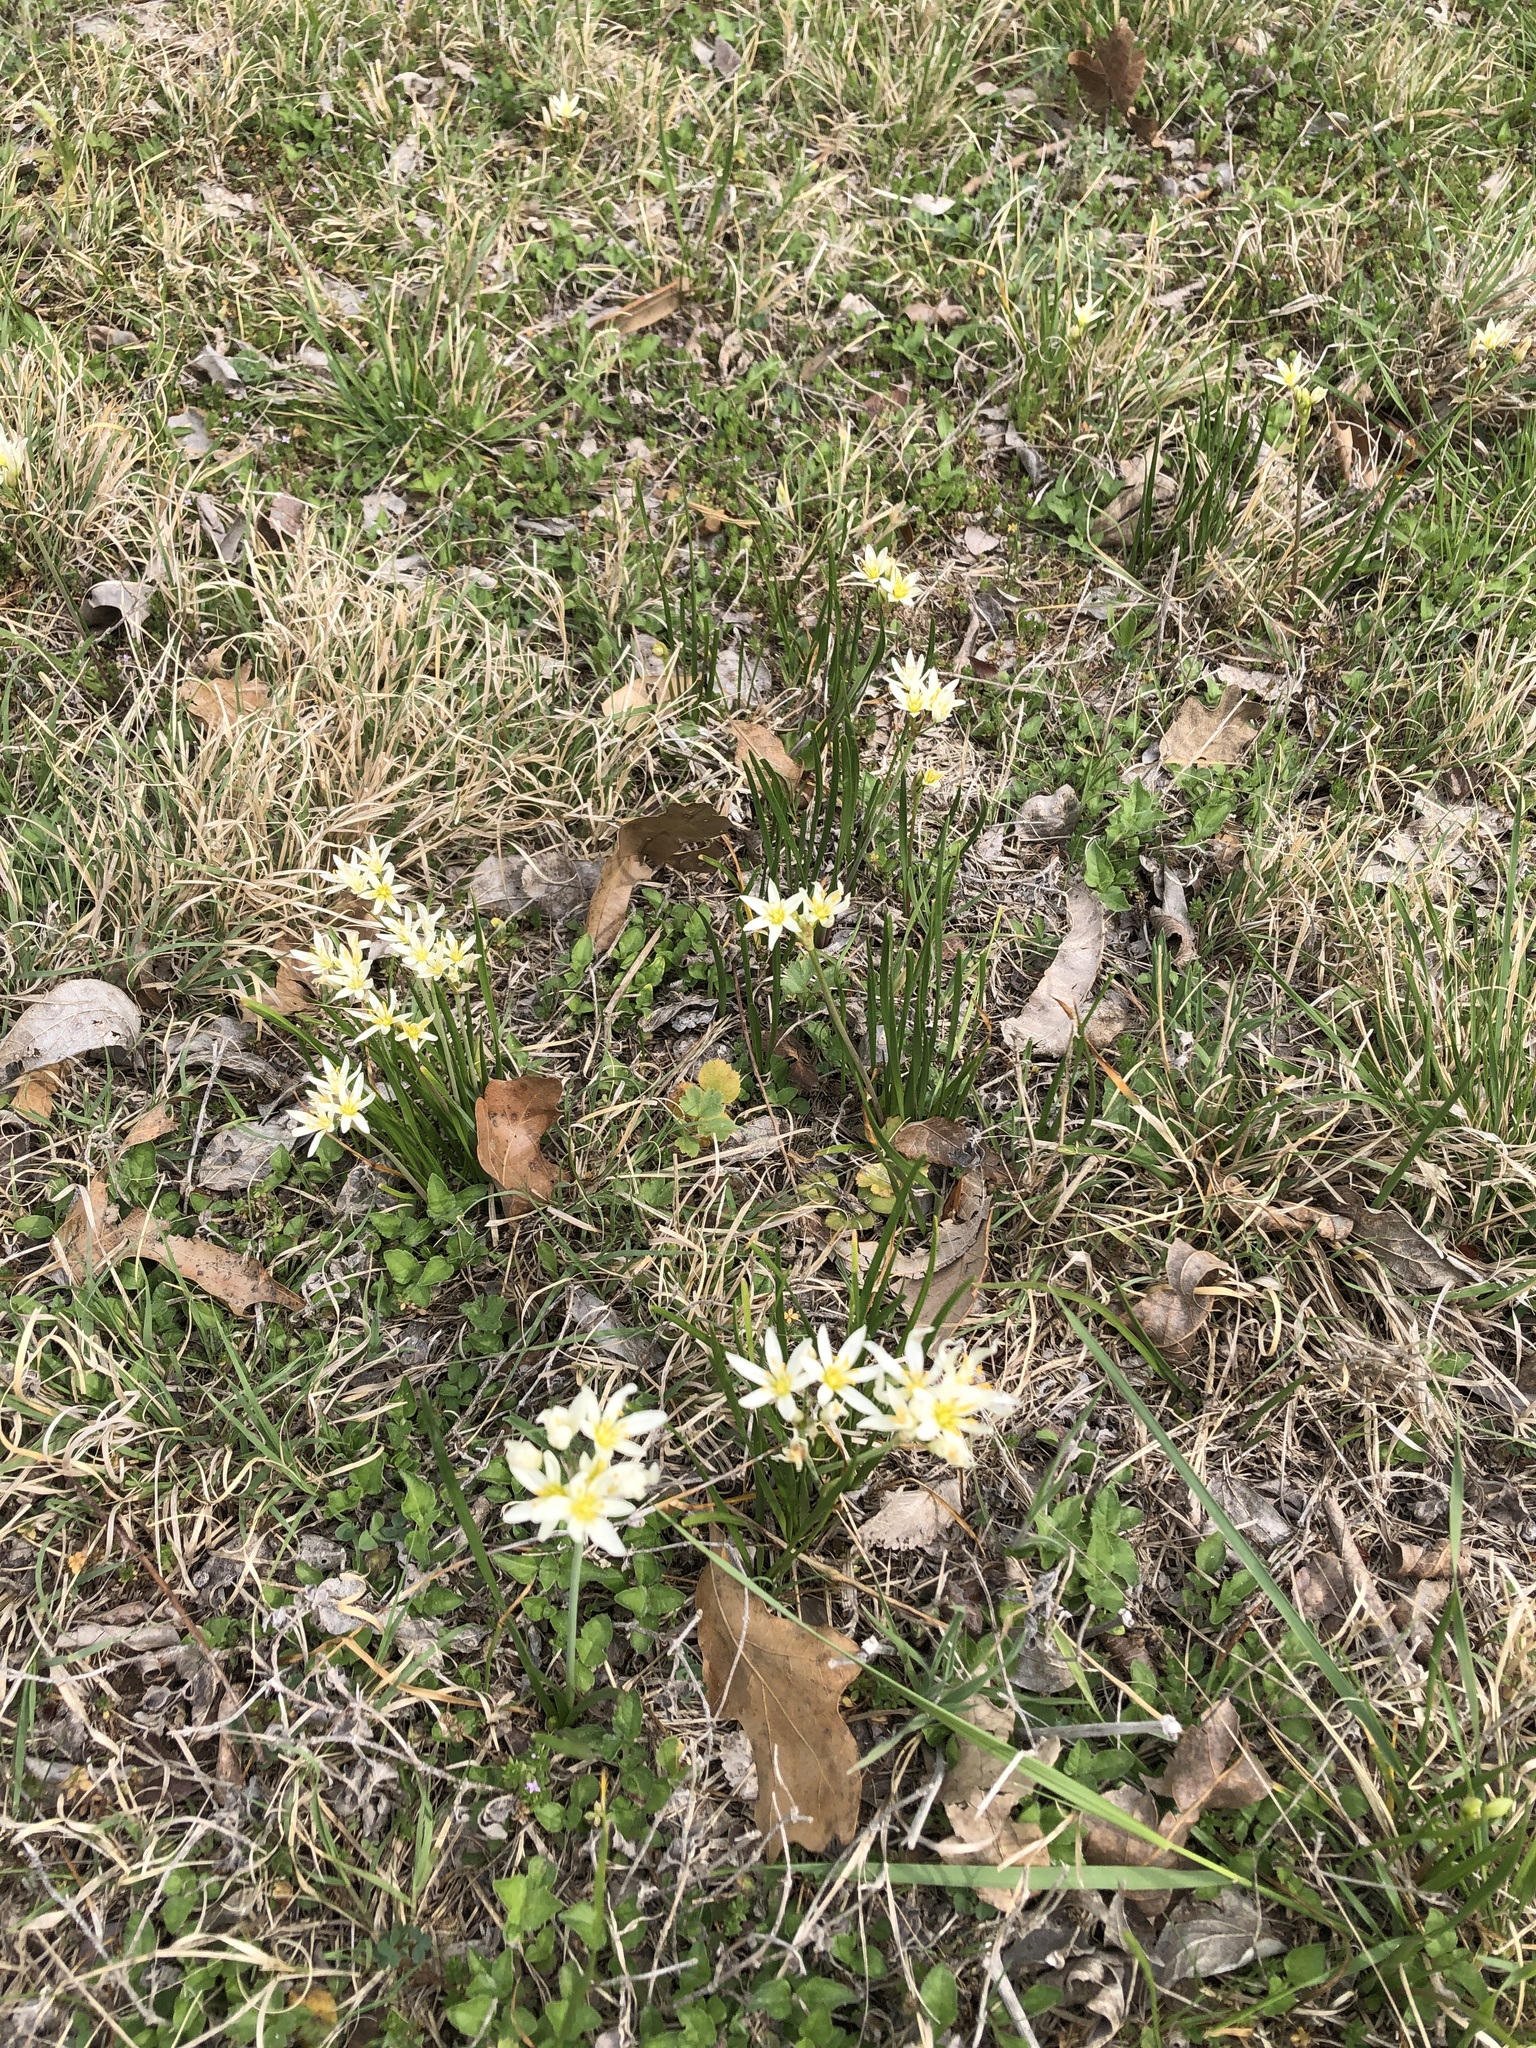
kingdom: Plantae
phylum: Tracheophyta
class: Liliopsida
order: Asparagales
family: Amaryllidaceae
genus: Nothoscordum
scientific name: Nothoscordum bivalve
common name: Crow-poison
